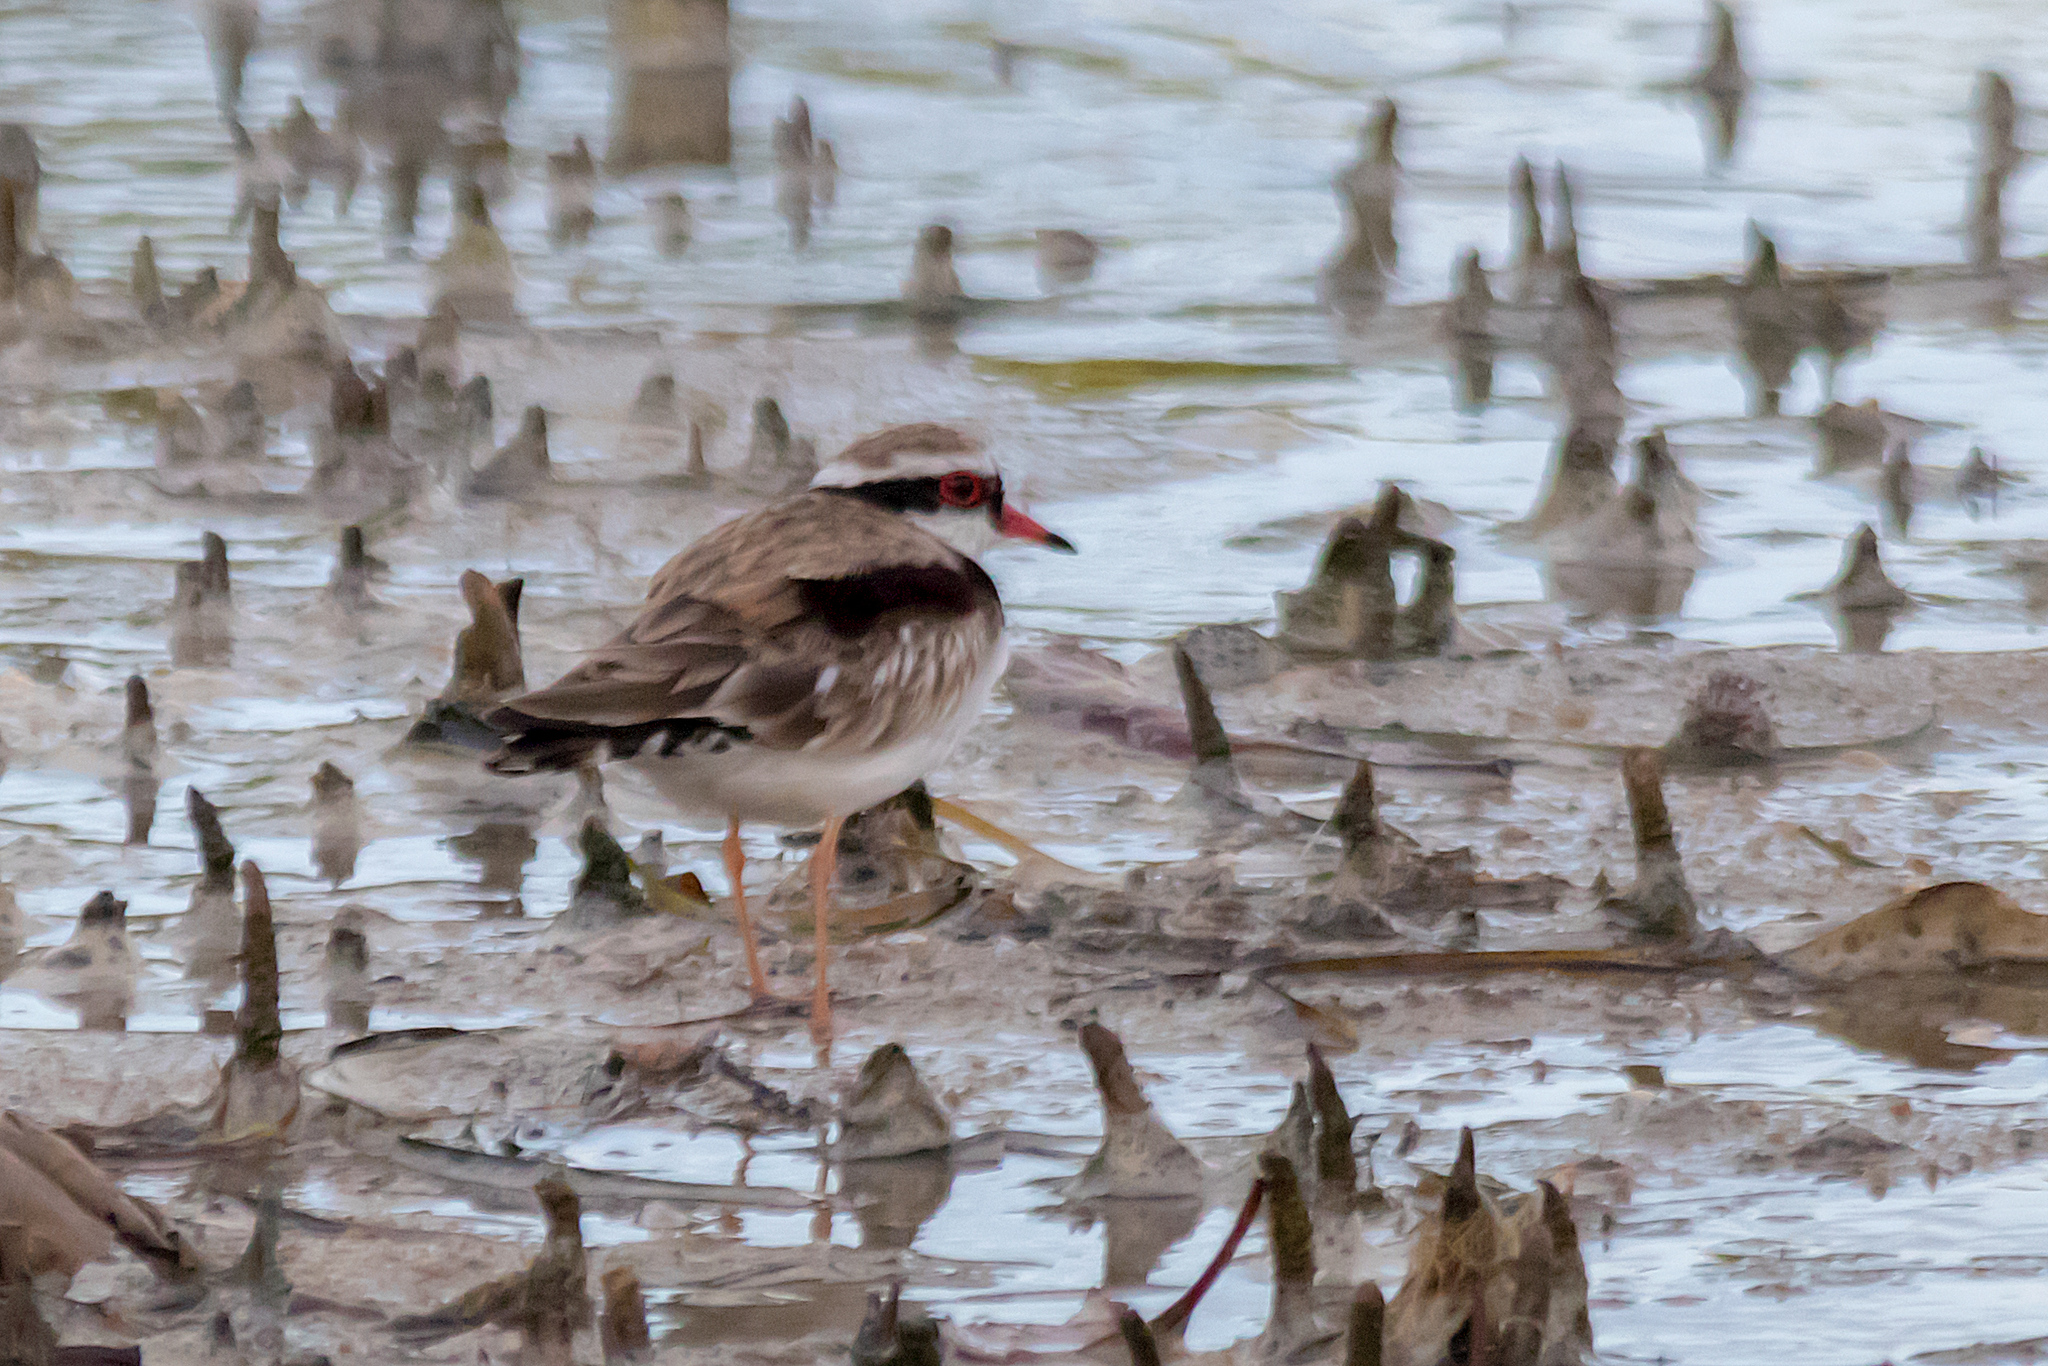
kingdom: Animalia
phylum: Chordata
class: Aves
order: Charadriiformes
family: Charadriidae
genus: Elseyornis
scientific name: Elseyornis melanops
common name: Black-fronted dotterel
